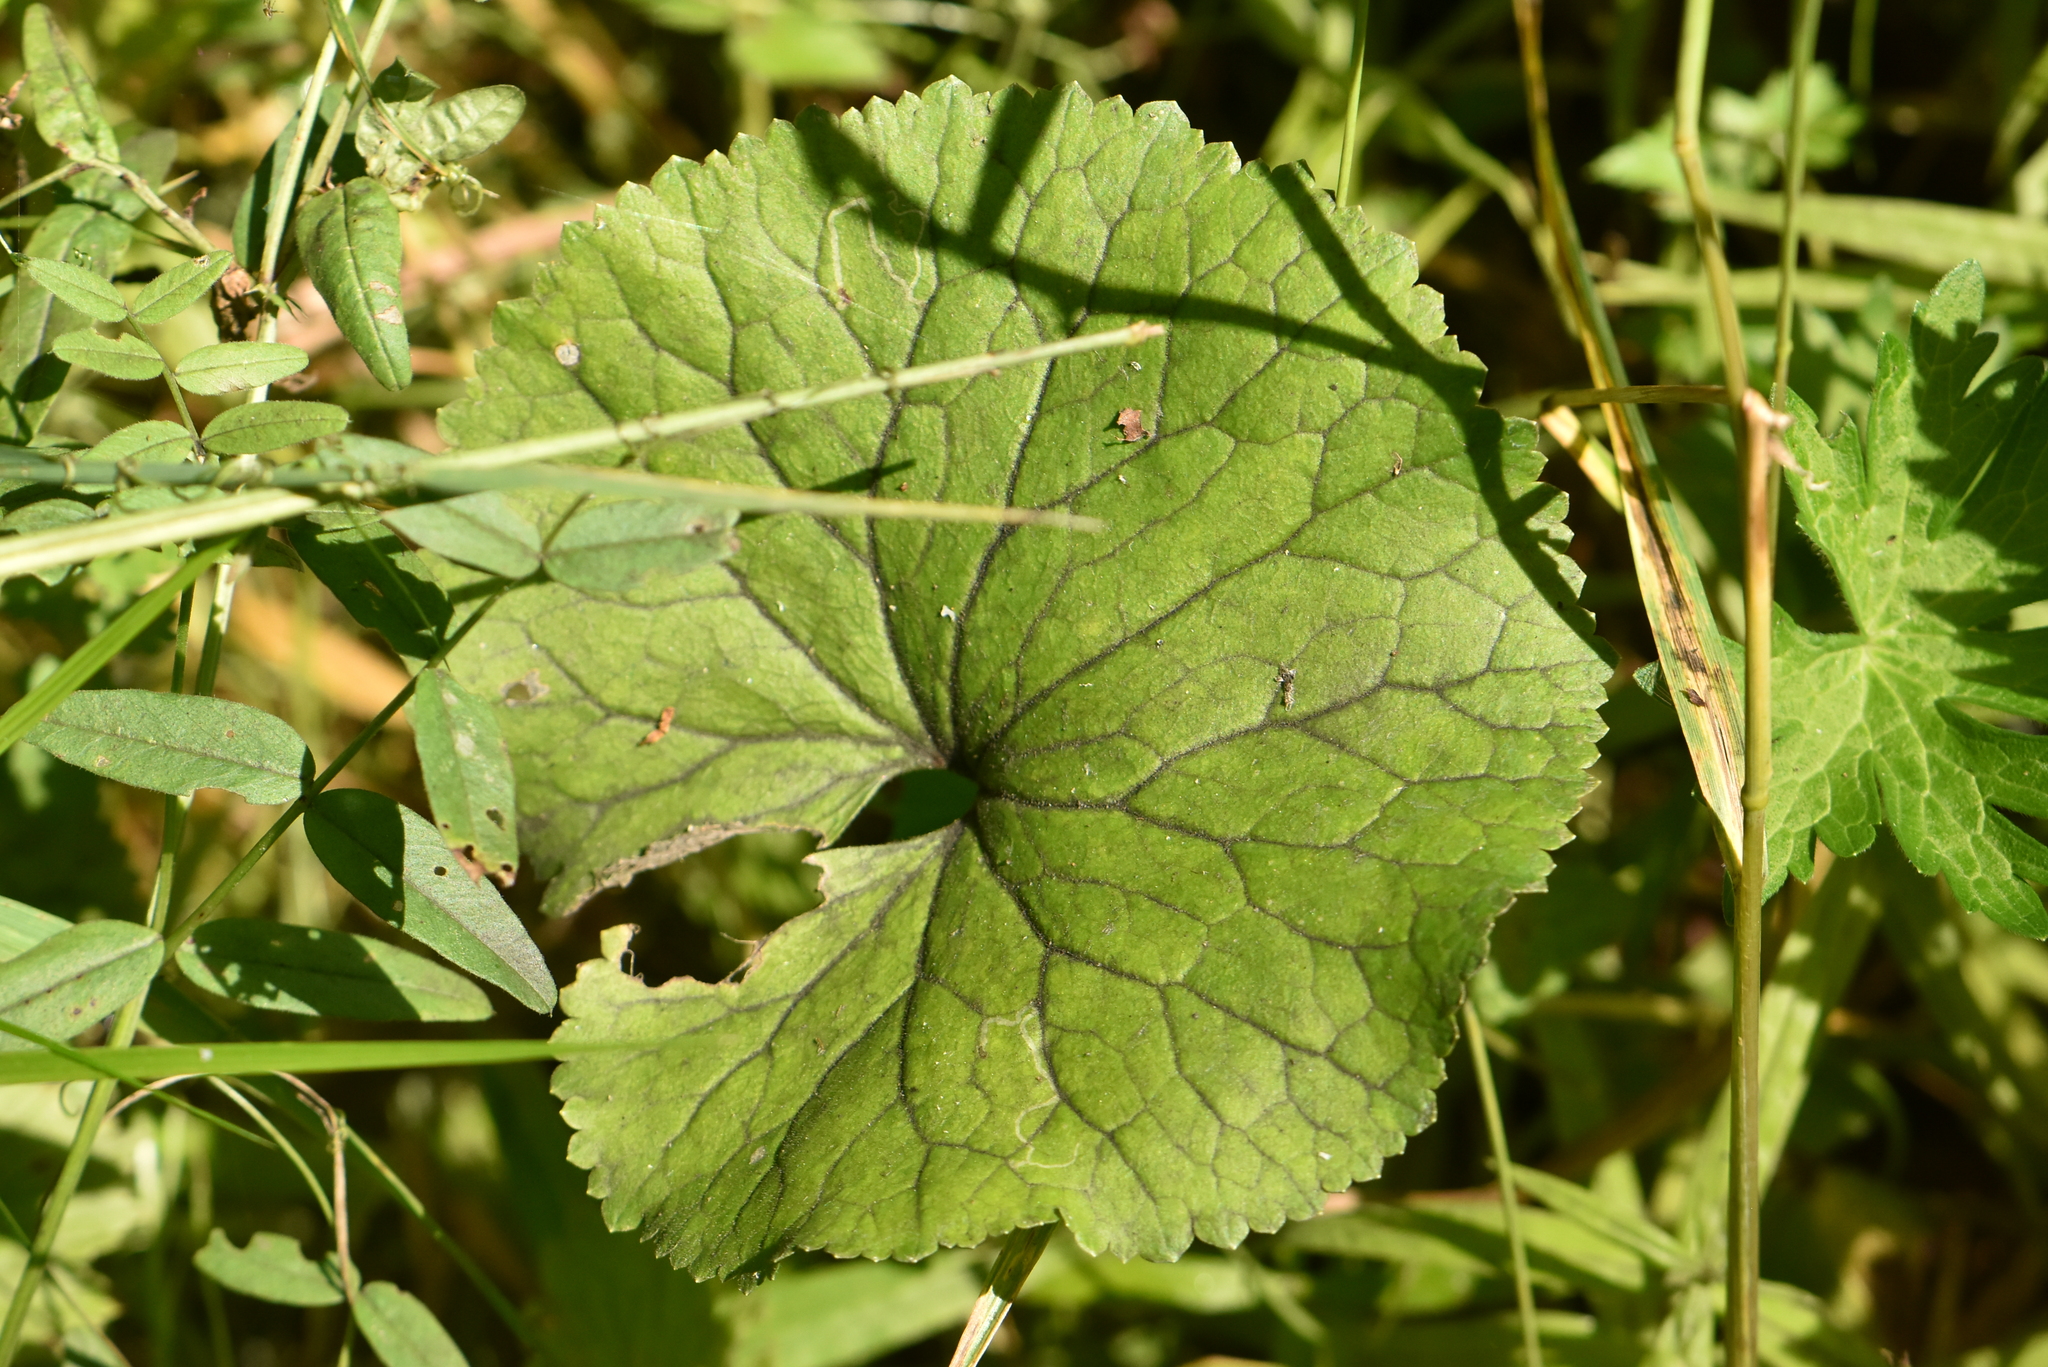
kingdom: Plantae
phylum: Tracheophyta
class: Magnoliopsida
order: Ranunculales
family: Ranunculaceae
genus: Ranunculus
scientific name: Ranunculus cassubicus
